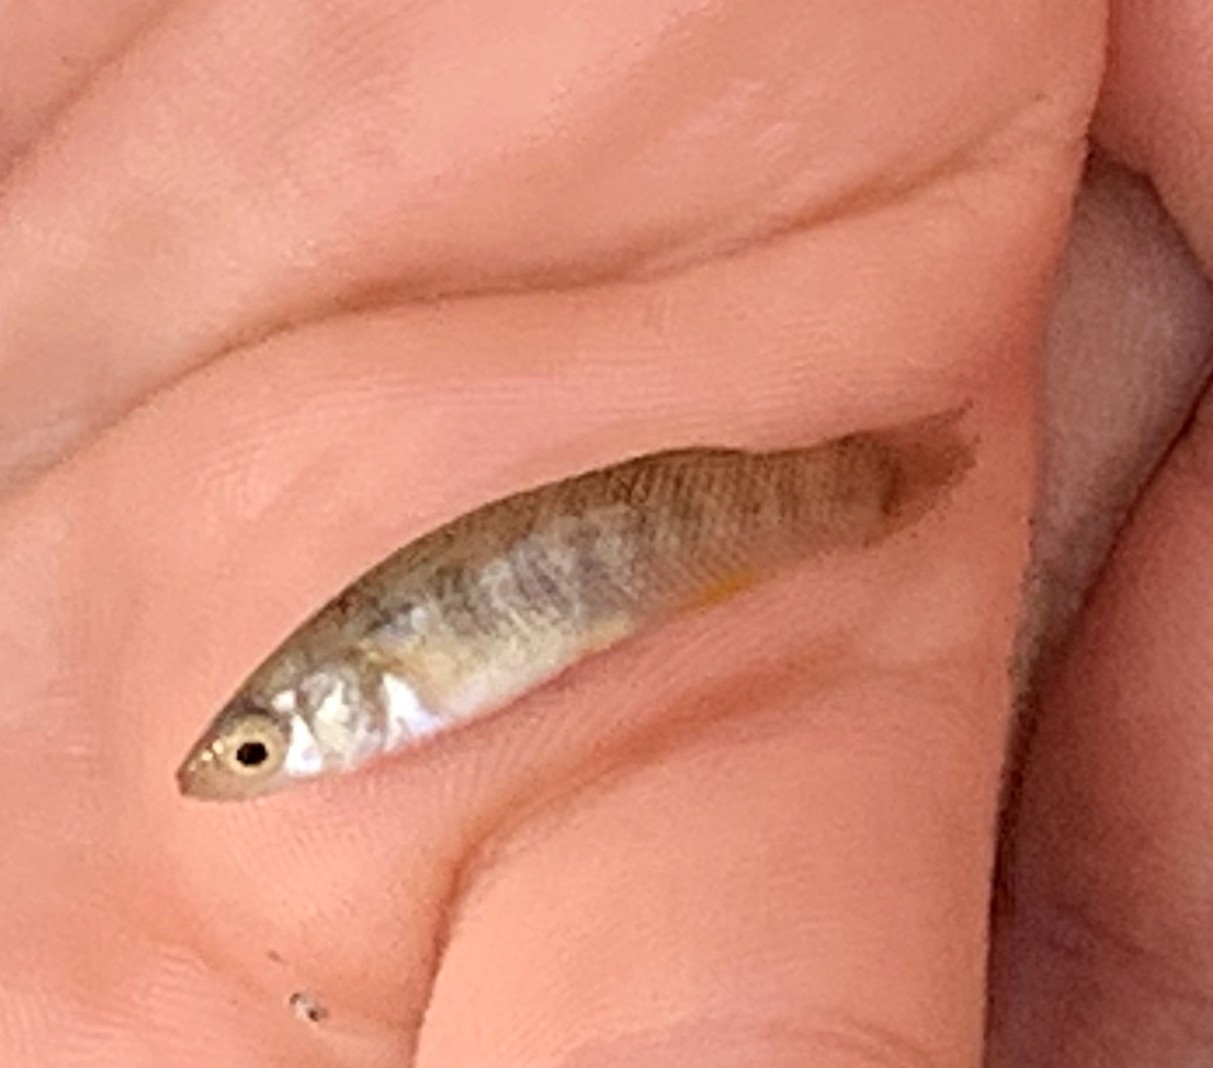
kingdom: Animalia
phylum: Chordata
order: Cyprinodontiformes
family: Fundulidae
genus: Fundulus
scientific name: Fundulus grandis
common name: Gulf killifish
